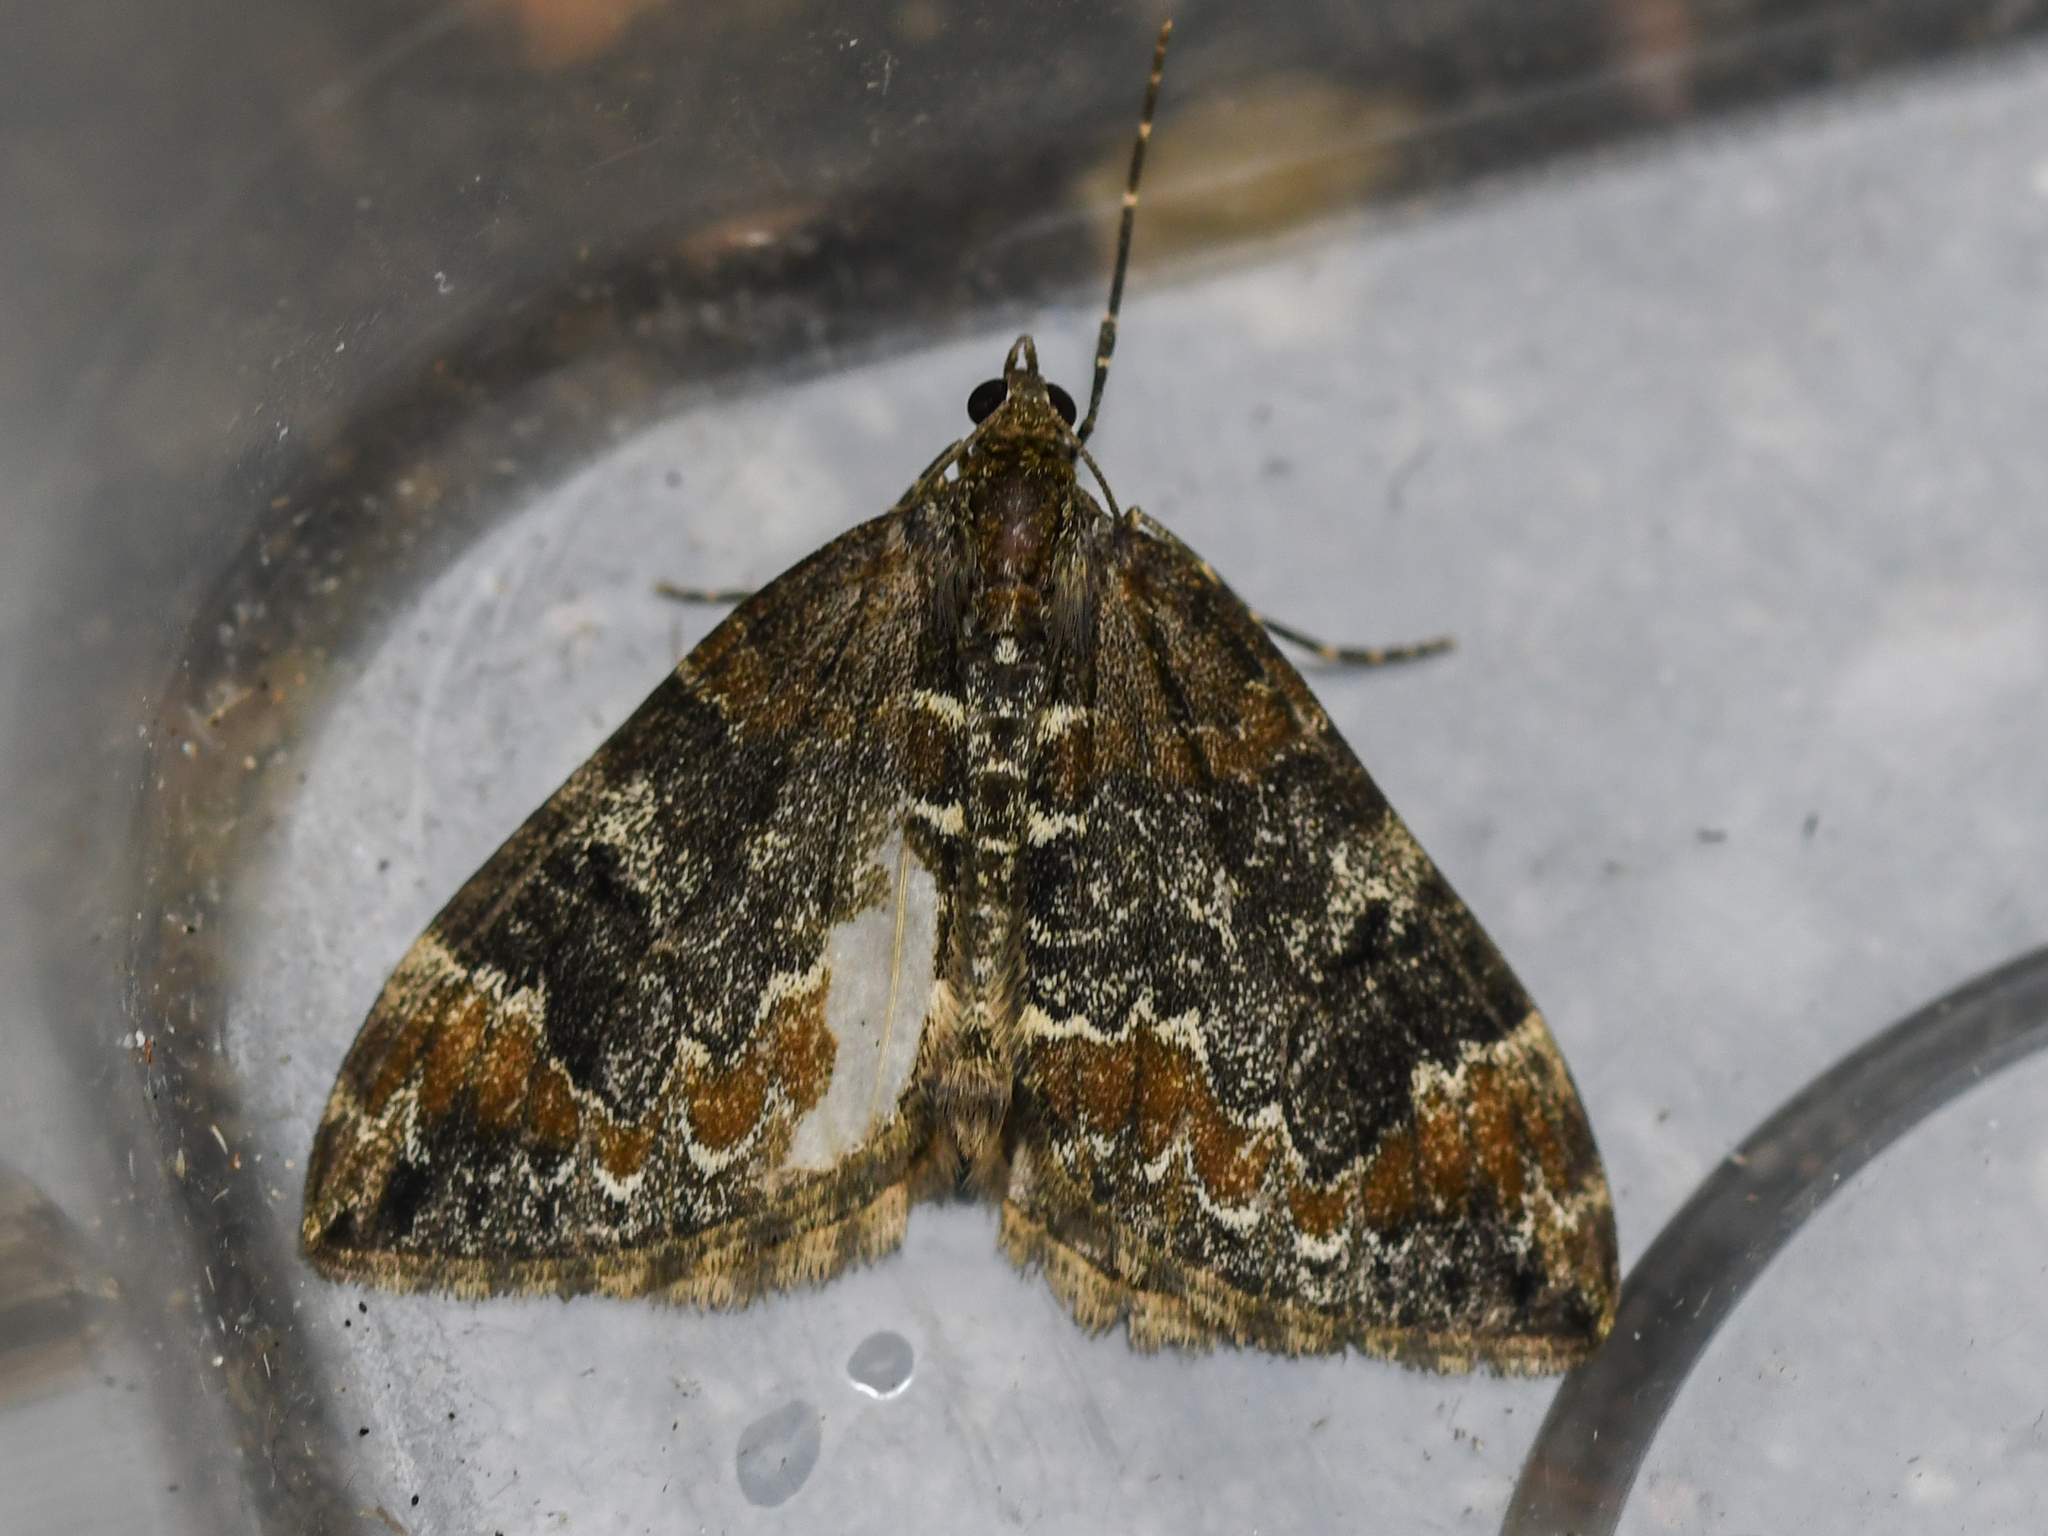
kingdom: Animalia
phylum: Arthropoda
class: Insecta
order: Lepidoptera
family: Geometridae
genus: Dysstroma
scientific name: Dysstroma truncata
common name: Common marbled carpet
